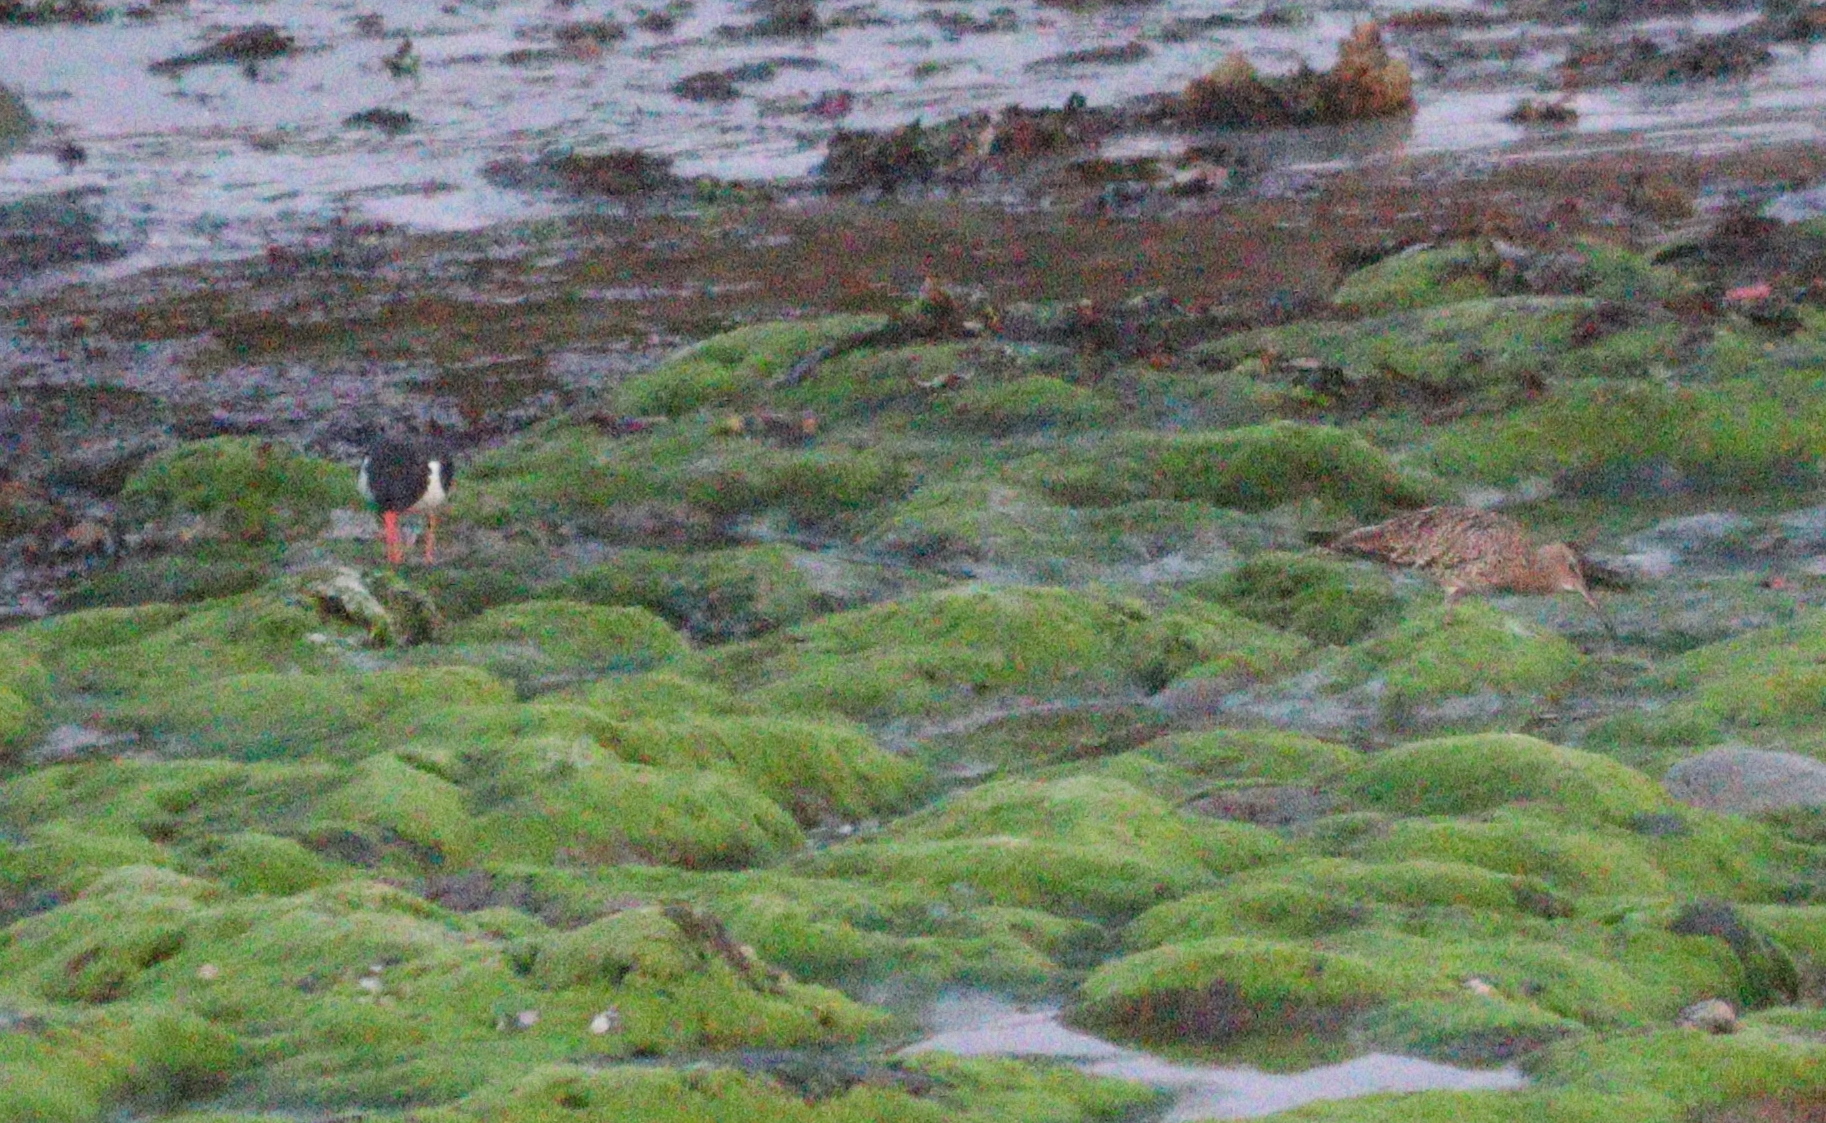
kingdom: Animalia
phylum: Chordata
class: Aves
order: Charadriiformes
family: Scolopacidae
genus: Numenius
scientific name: Numenius arquata
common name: Eurasian curlew
